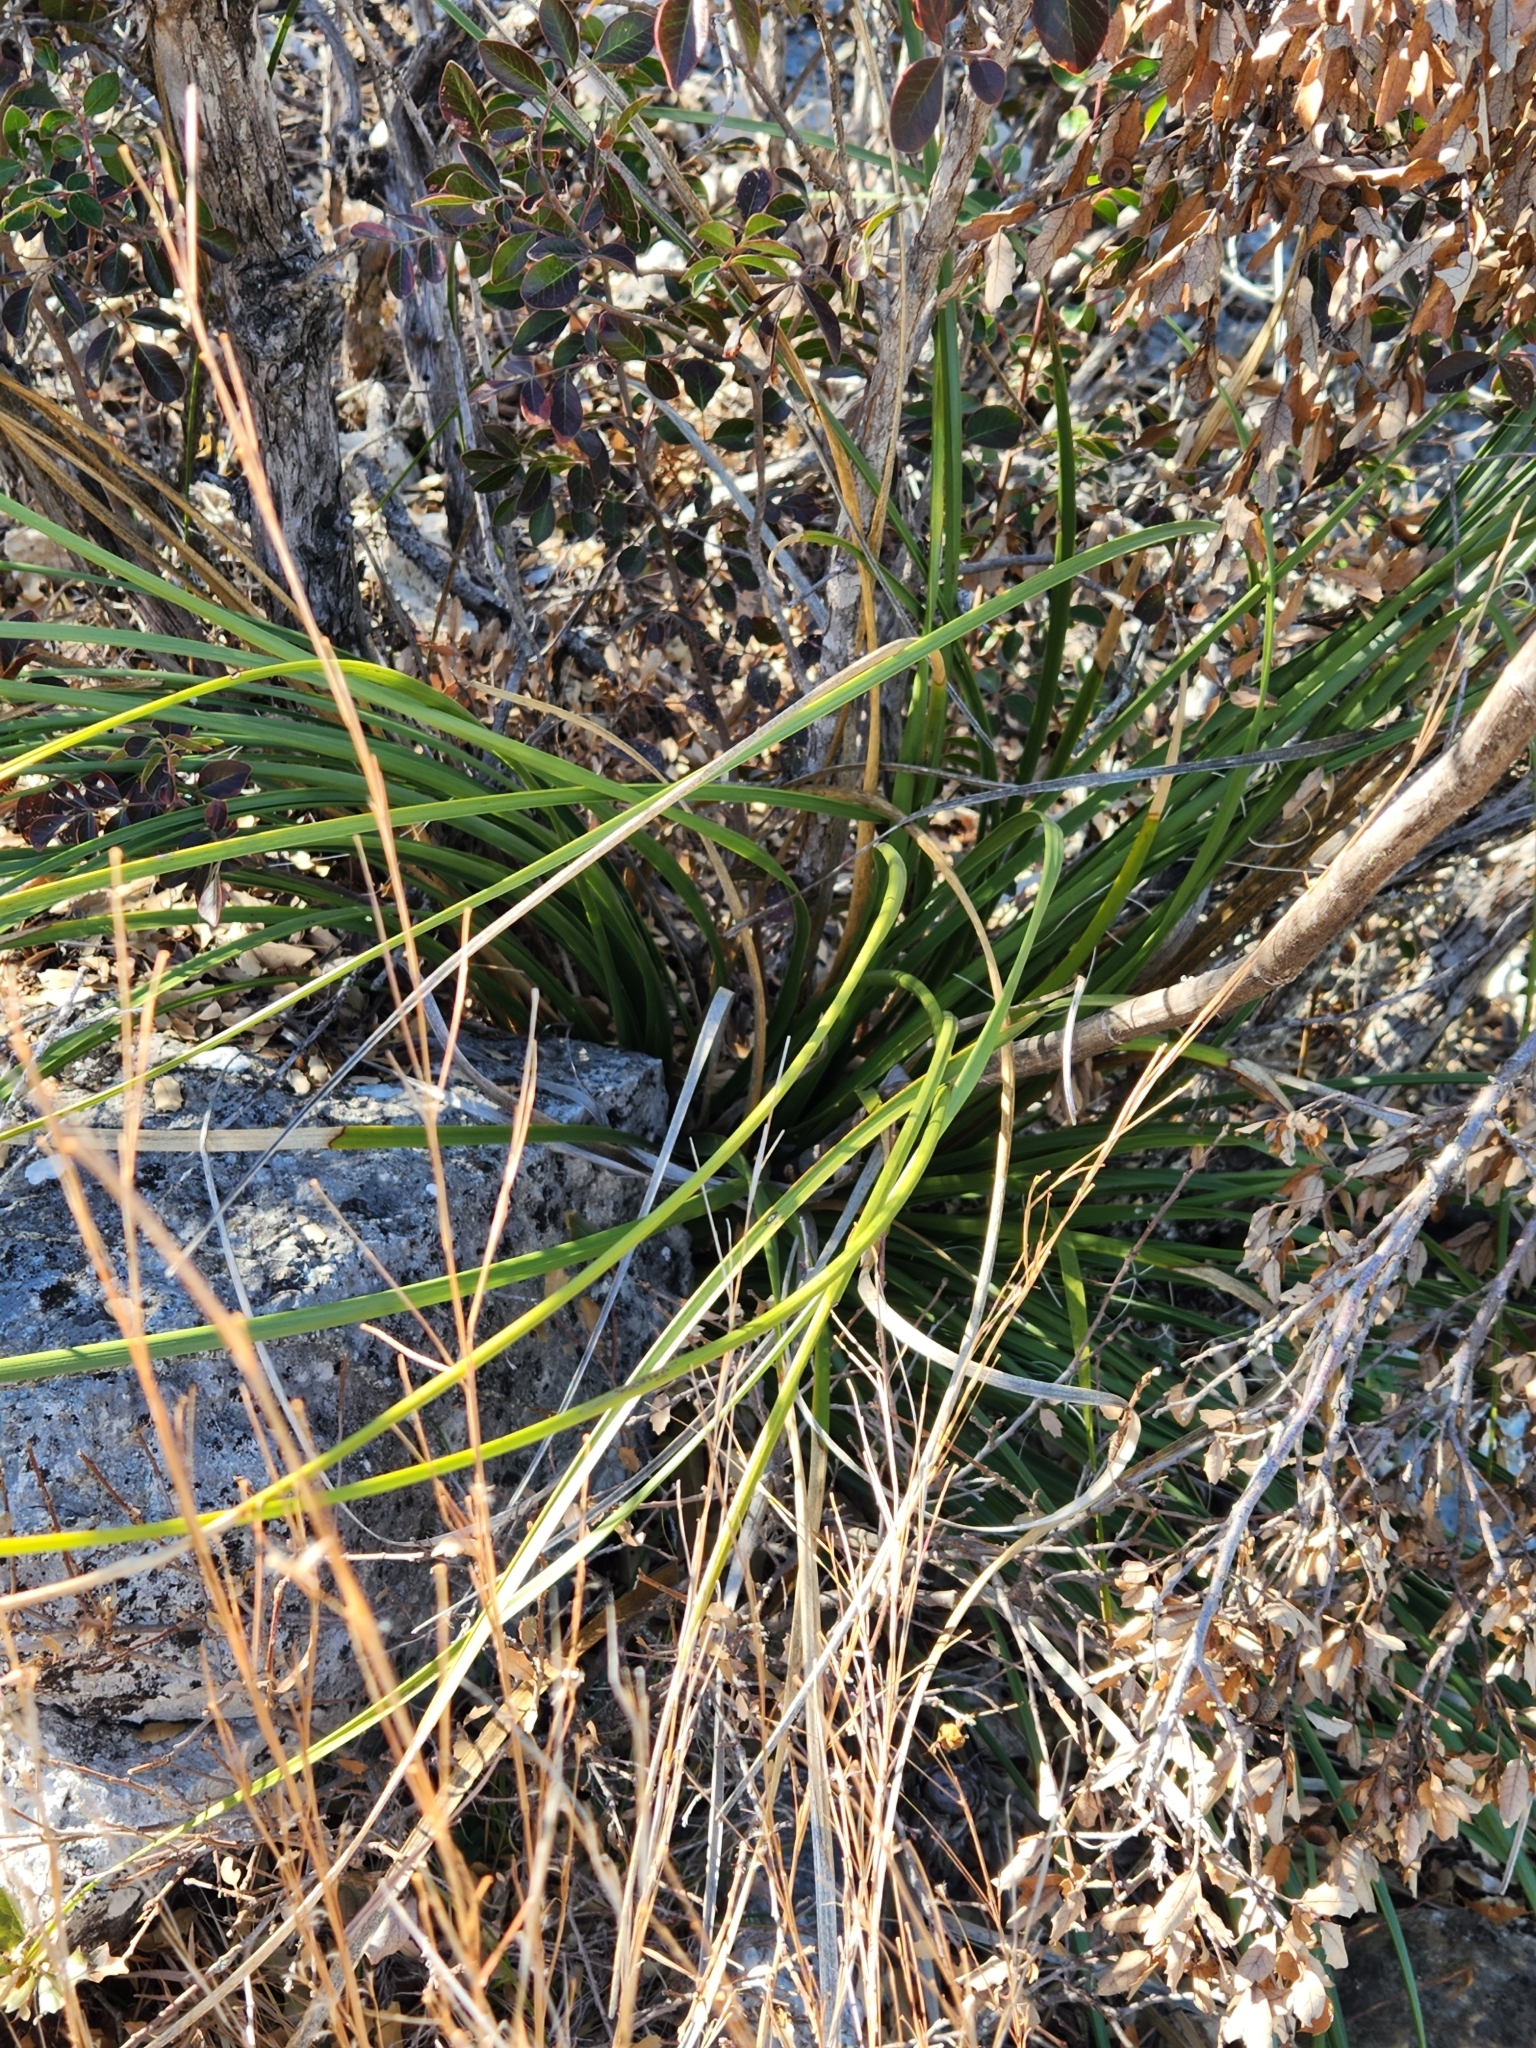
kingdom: Plantae
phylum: Tracheophyta
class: Liliopsida
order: Asparagales
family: Asparagaceae
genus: Nolina
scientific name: Nolina lindheimeriana
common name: Lindheimer's bear-grass
